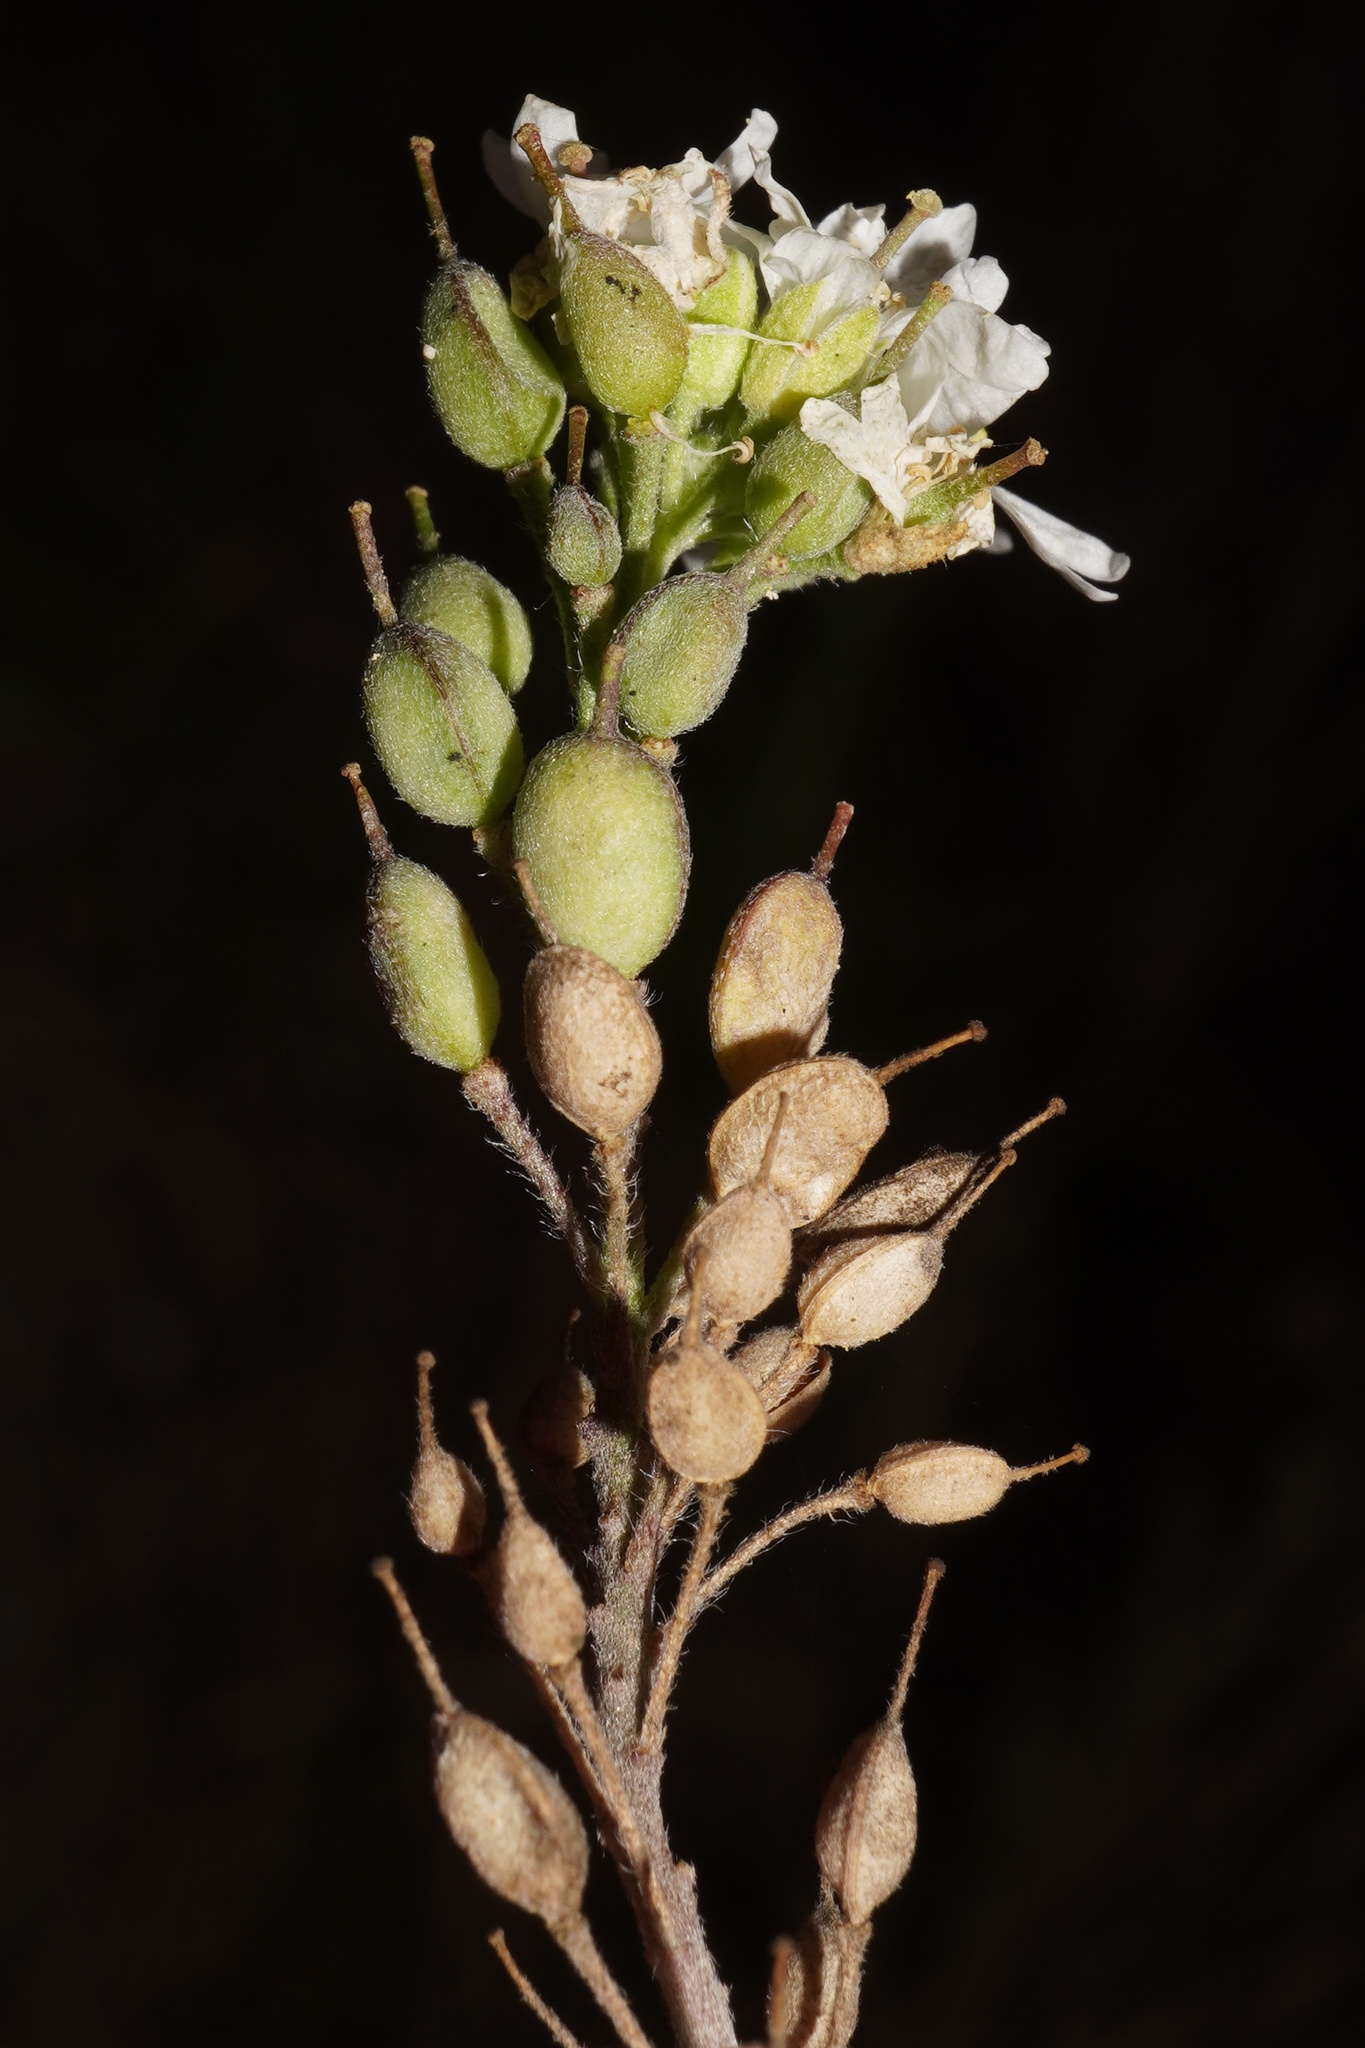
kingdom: Plantae
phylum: Tracheophyta
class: Magnoliopsida
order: Brassicales
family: Brassicaceae
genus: Berteroa
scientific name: Berteroa incana
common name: Hoary alison
